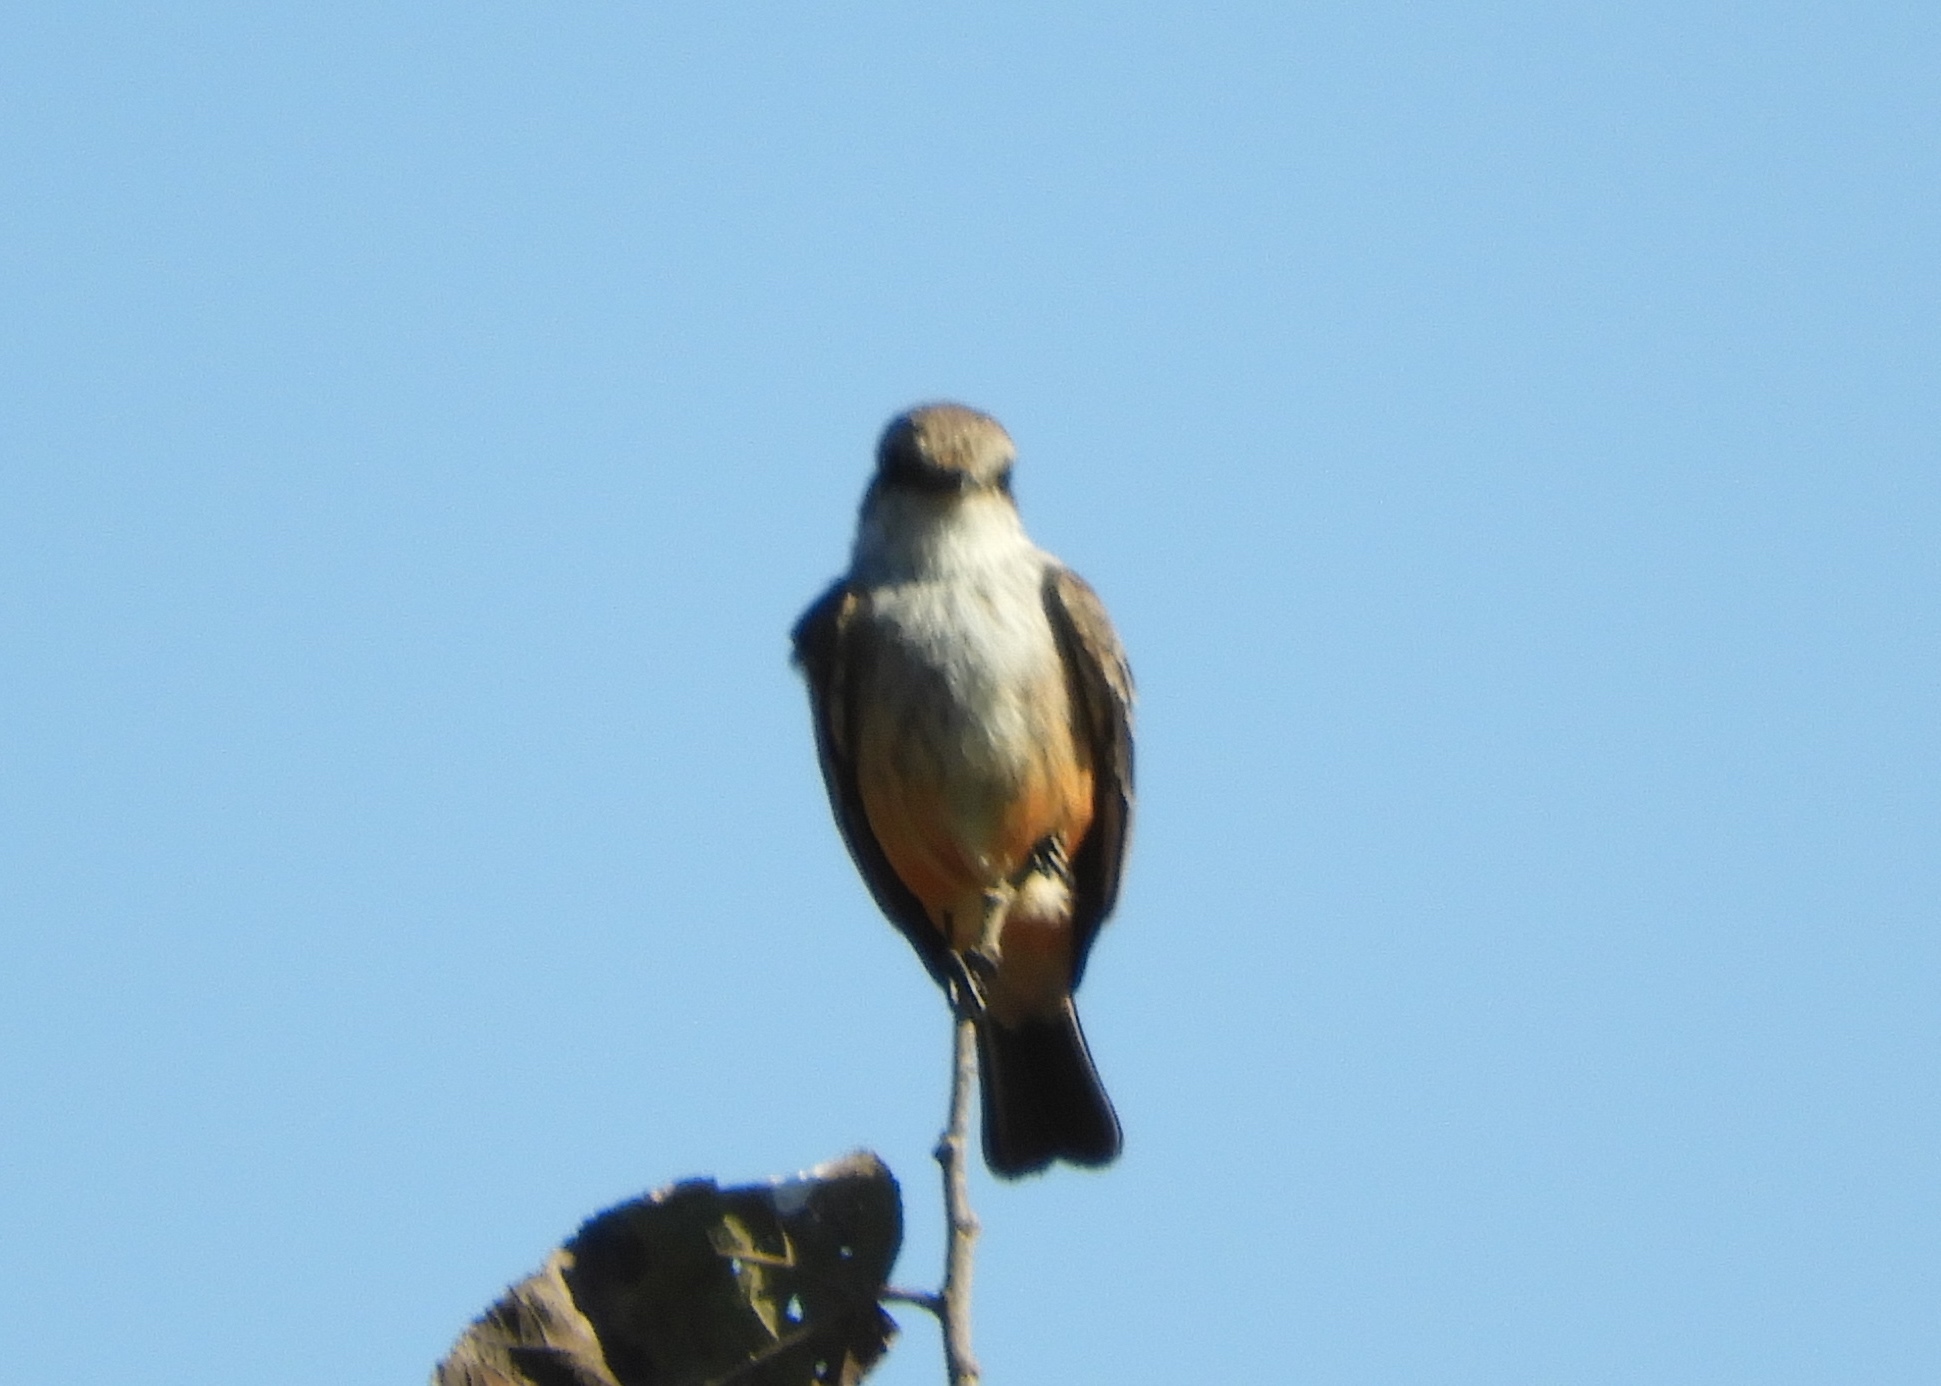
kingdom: Animalia
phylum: Chordata
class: Aves
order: Passeriformes
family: Tyrannidae
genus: Pyrocephalus
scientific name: Pyrocephalus rubinus
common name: Vermilion flycatcher
